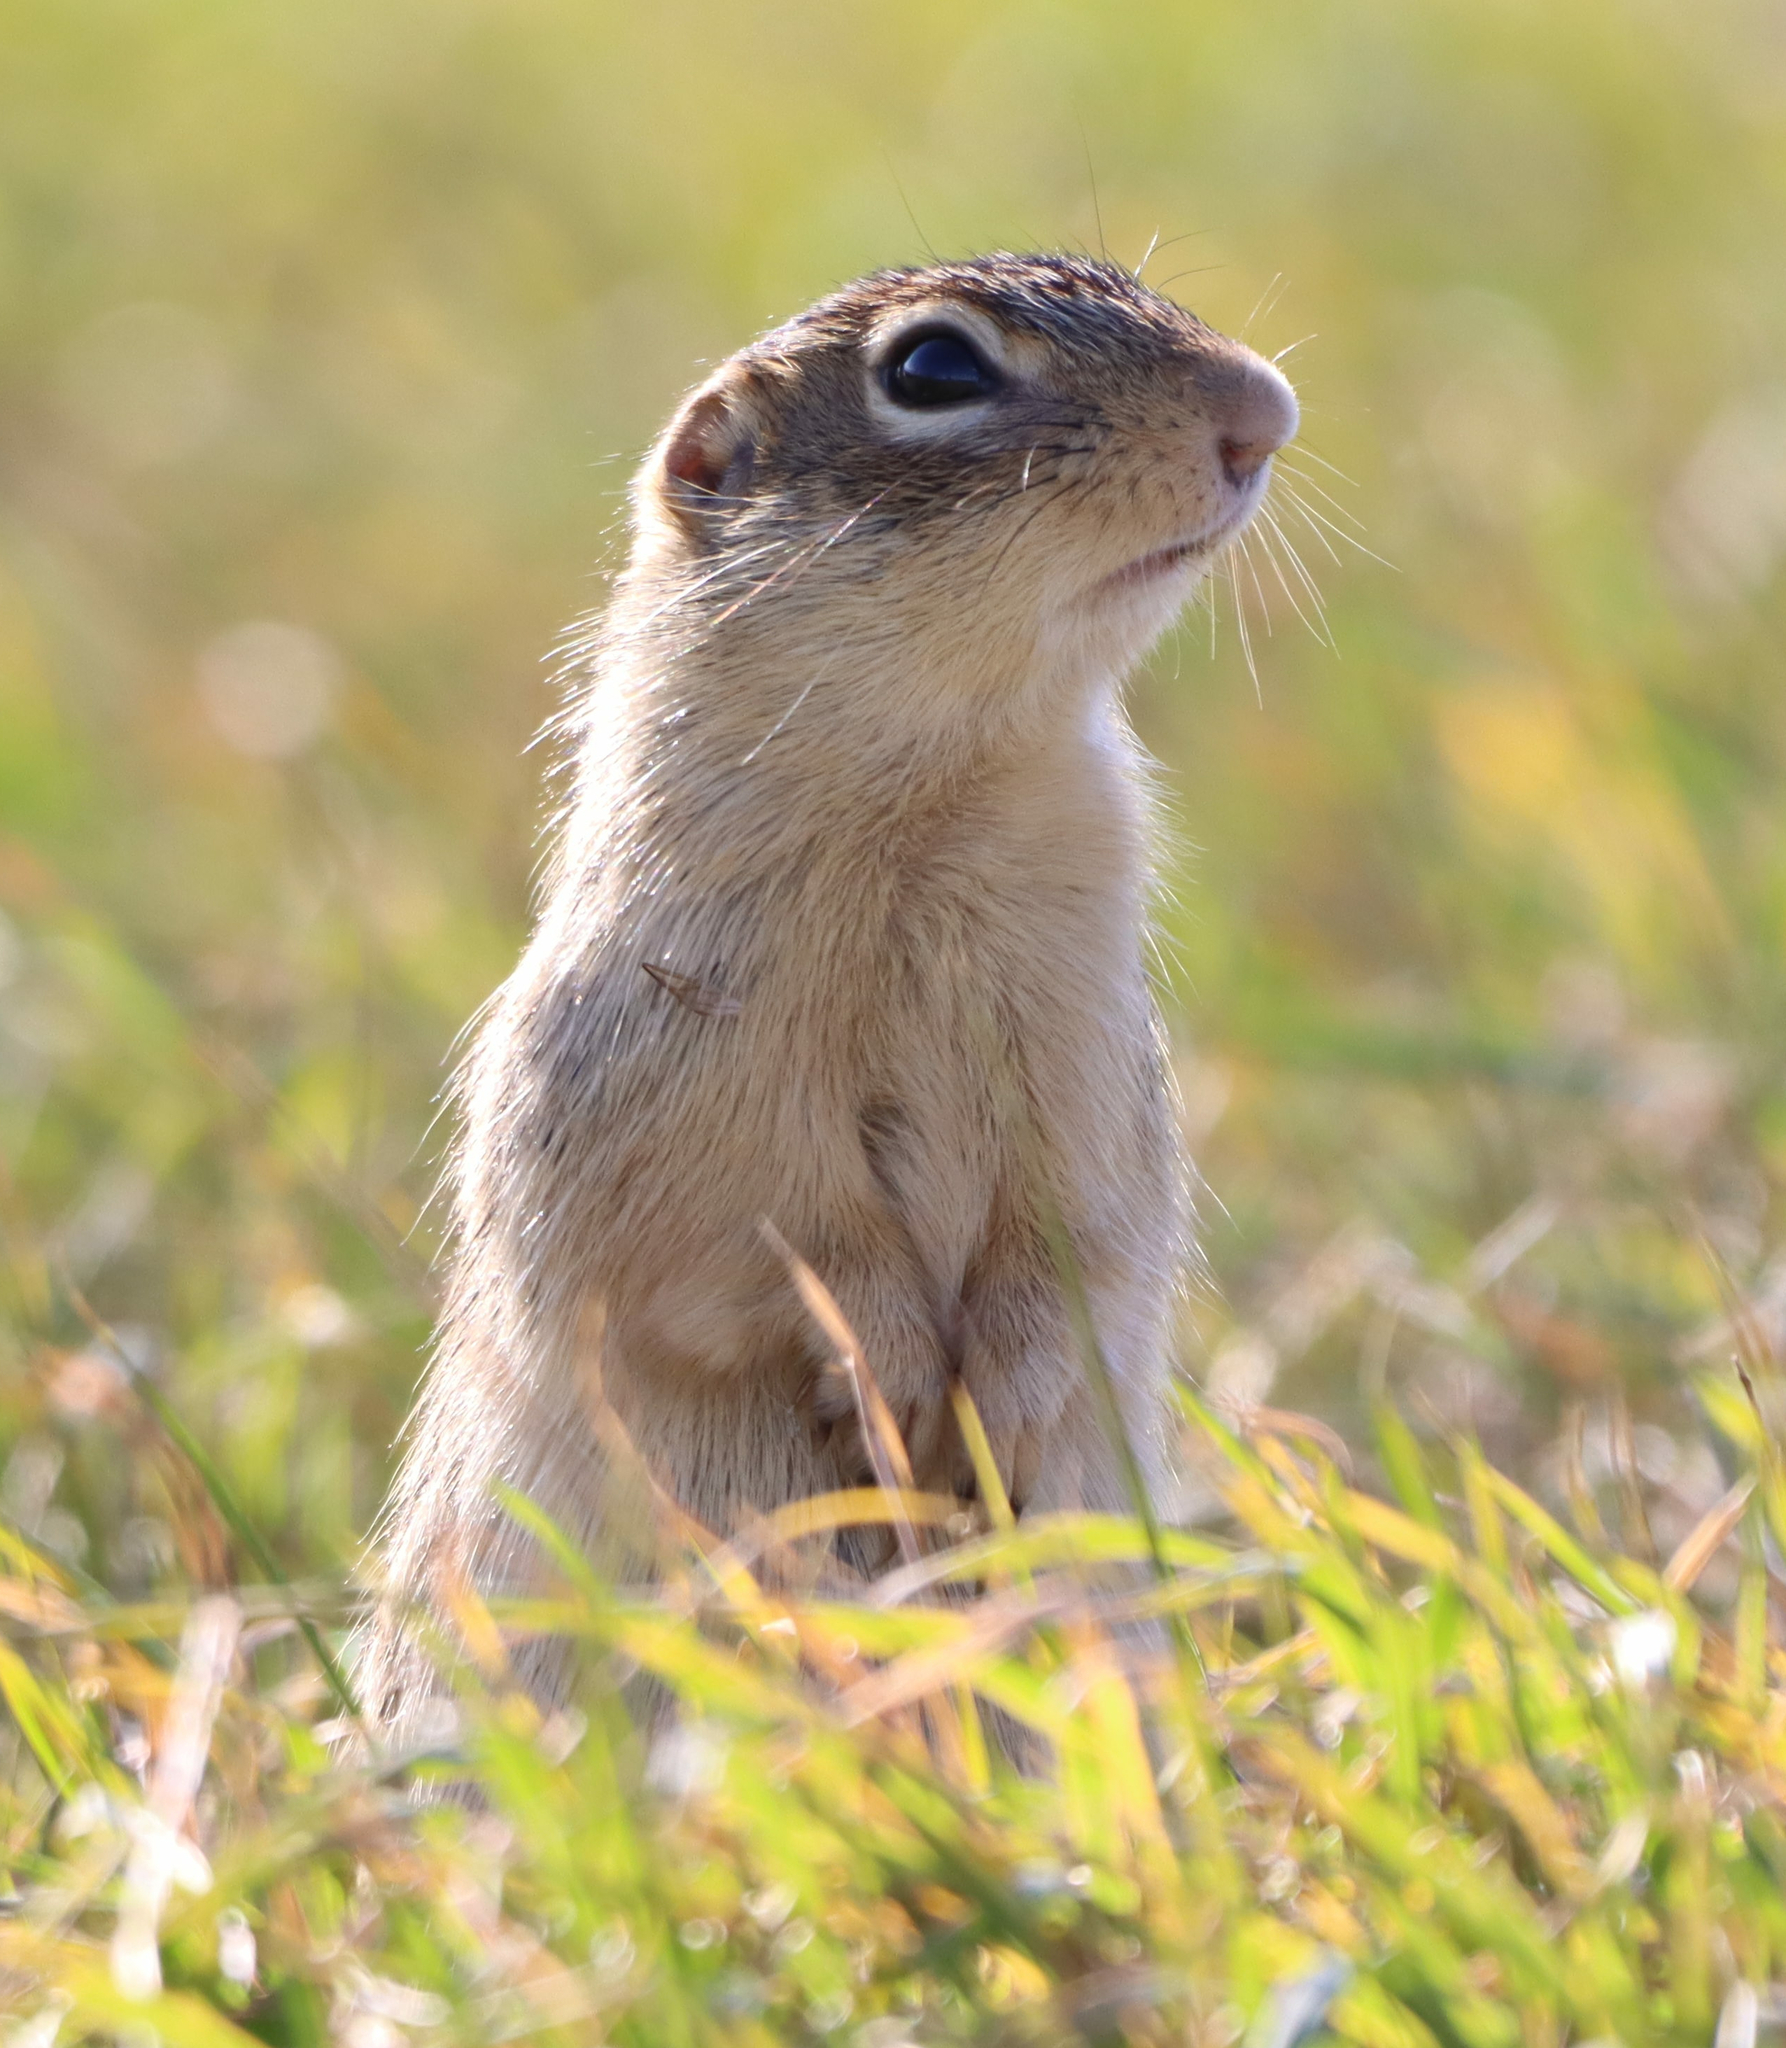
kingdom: Animalia
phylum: Chordata
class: Mammalia
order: Rodentia
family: Sciuridae
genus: Urocitellus
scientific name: Urocitellus richardsonii
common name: Richardson's ground squirrel
